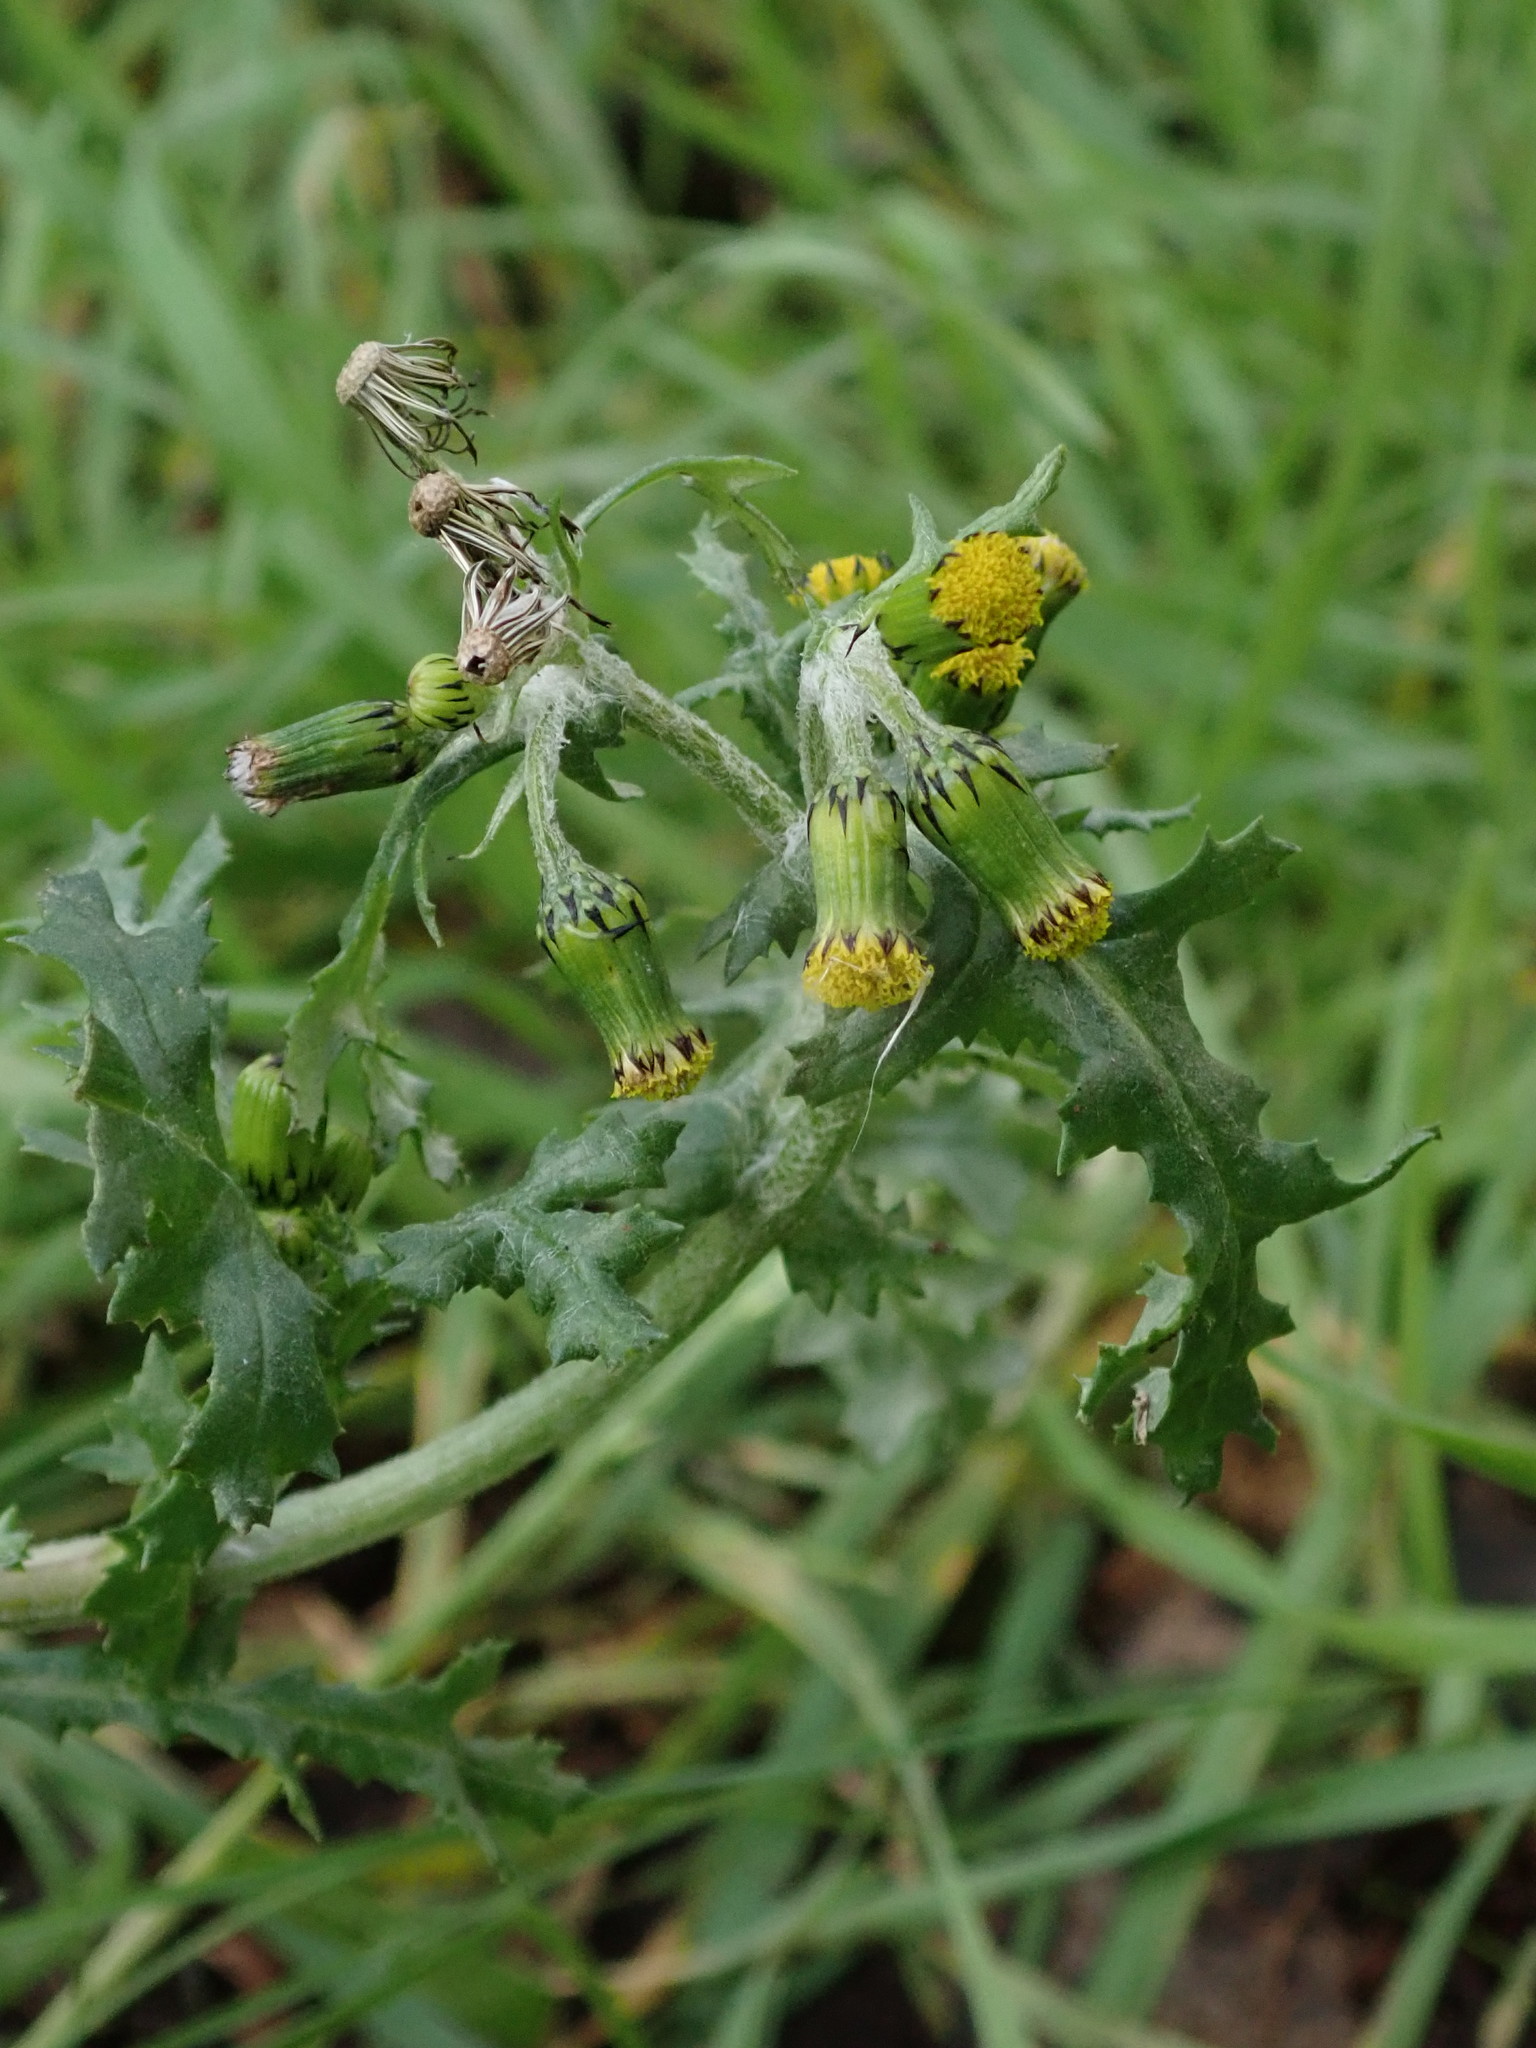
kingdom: Plantae
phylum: Tracheophyta
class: Magnoliopsida
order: Asterales
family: Asteraceae
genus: Senecio
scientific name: Senecio vulgaris
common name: Old-man-in-the-spring
